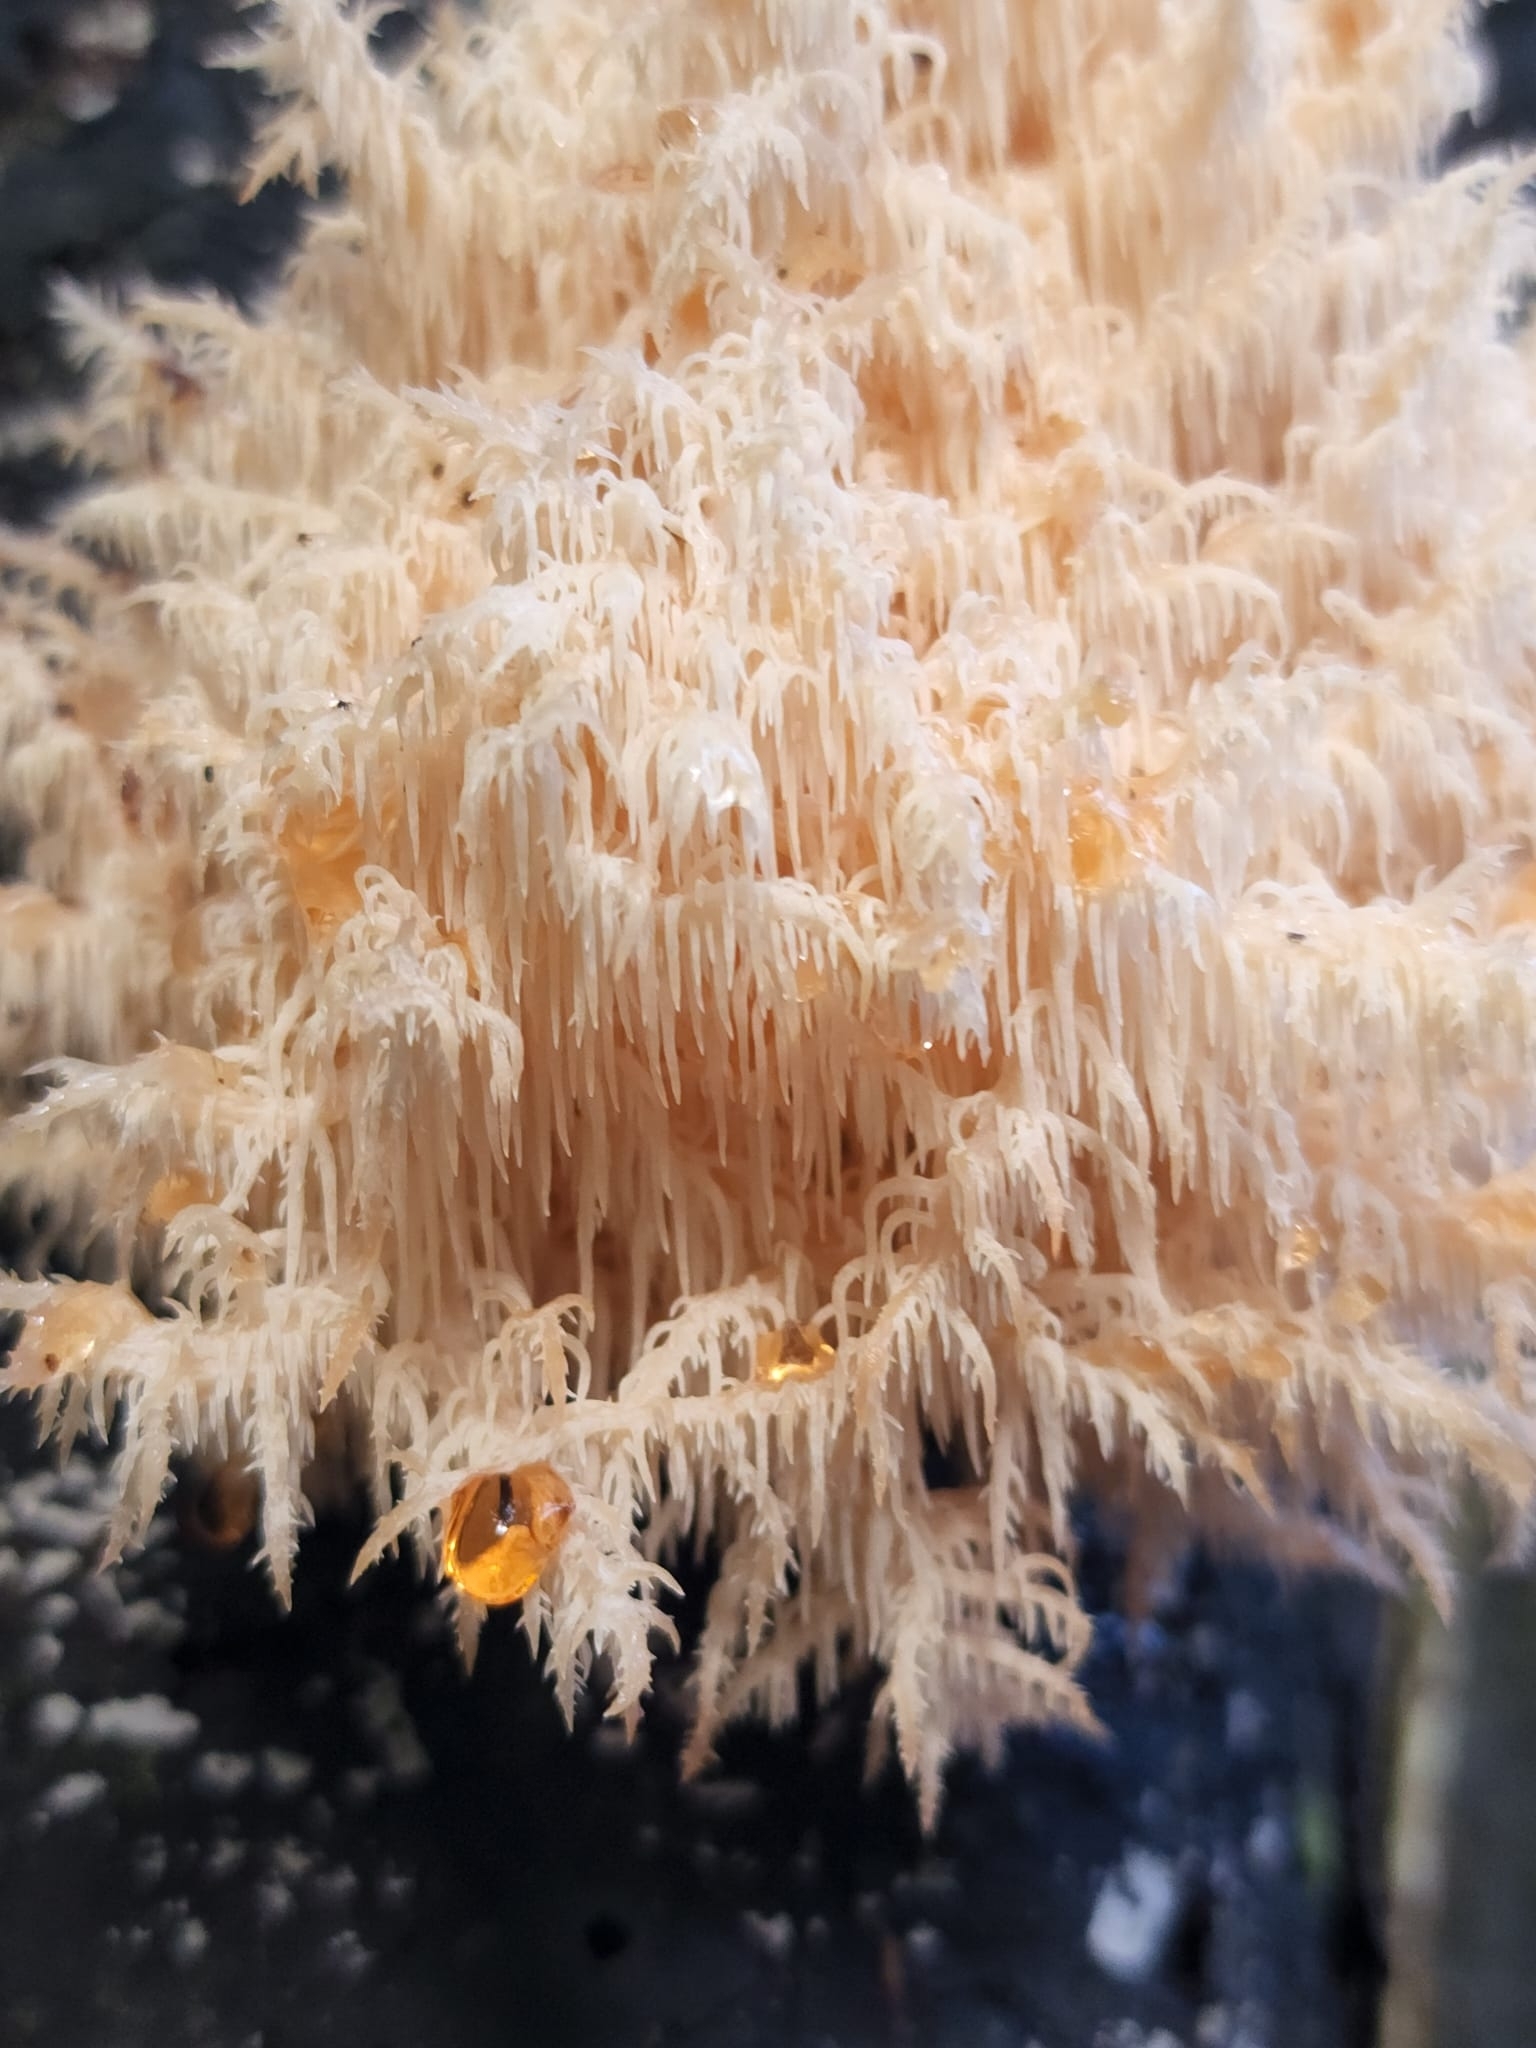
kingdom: Fungi
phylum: Basidiomycota
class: Agaricomycetes
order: Russulales
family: Hericiaceae
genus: Hericium
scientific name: Hericium novae-zealandiae
